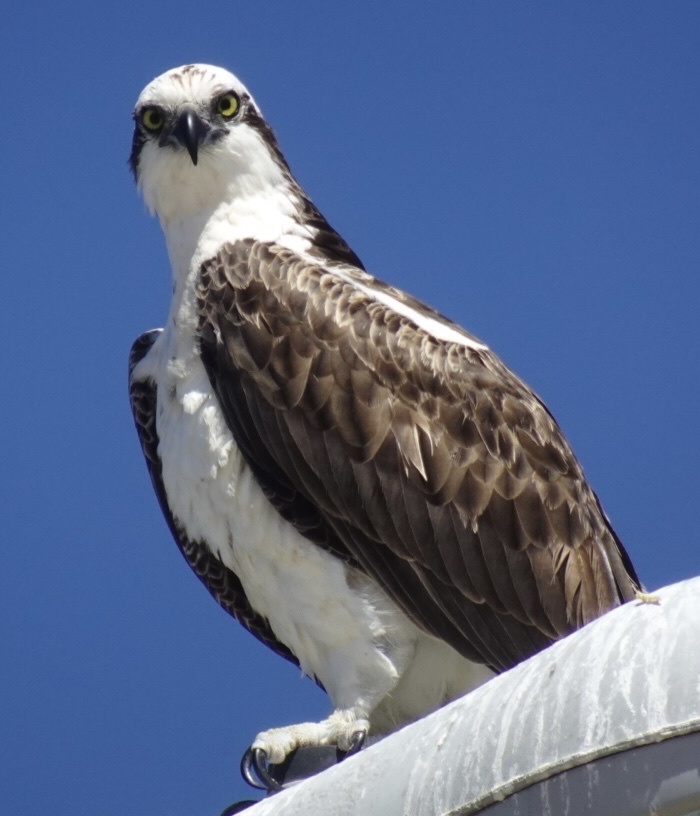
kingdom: Animalia
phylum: Chordata
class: Aves
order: Accipitriformes
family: Pandionidae
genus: Pandion
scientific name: Pandion haliaetus
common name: Osprey
